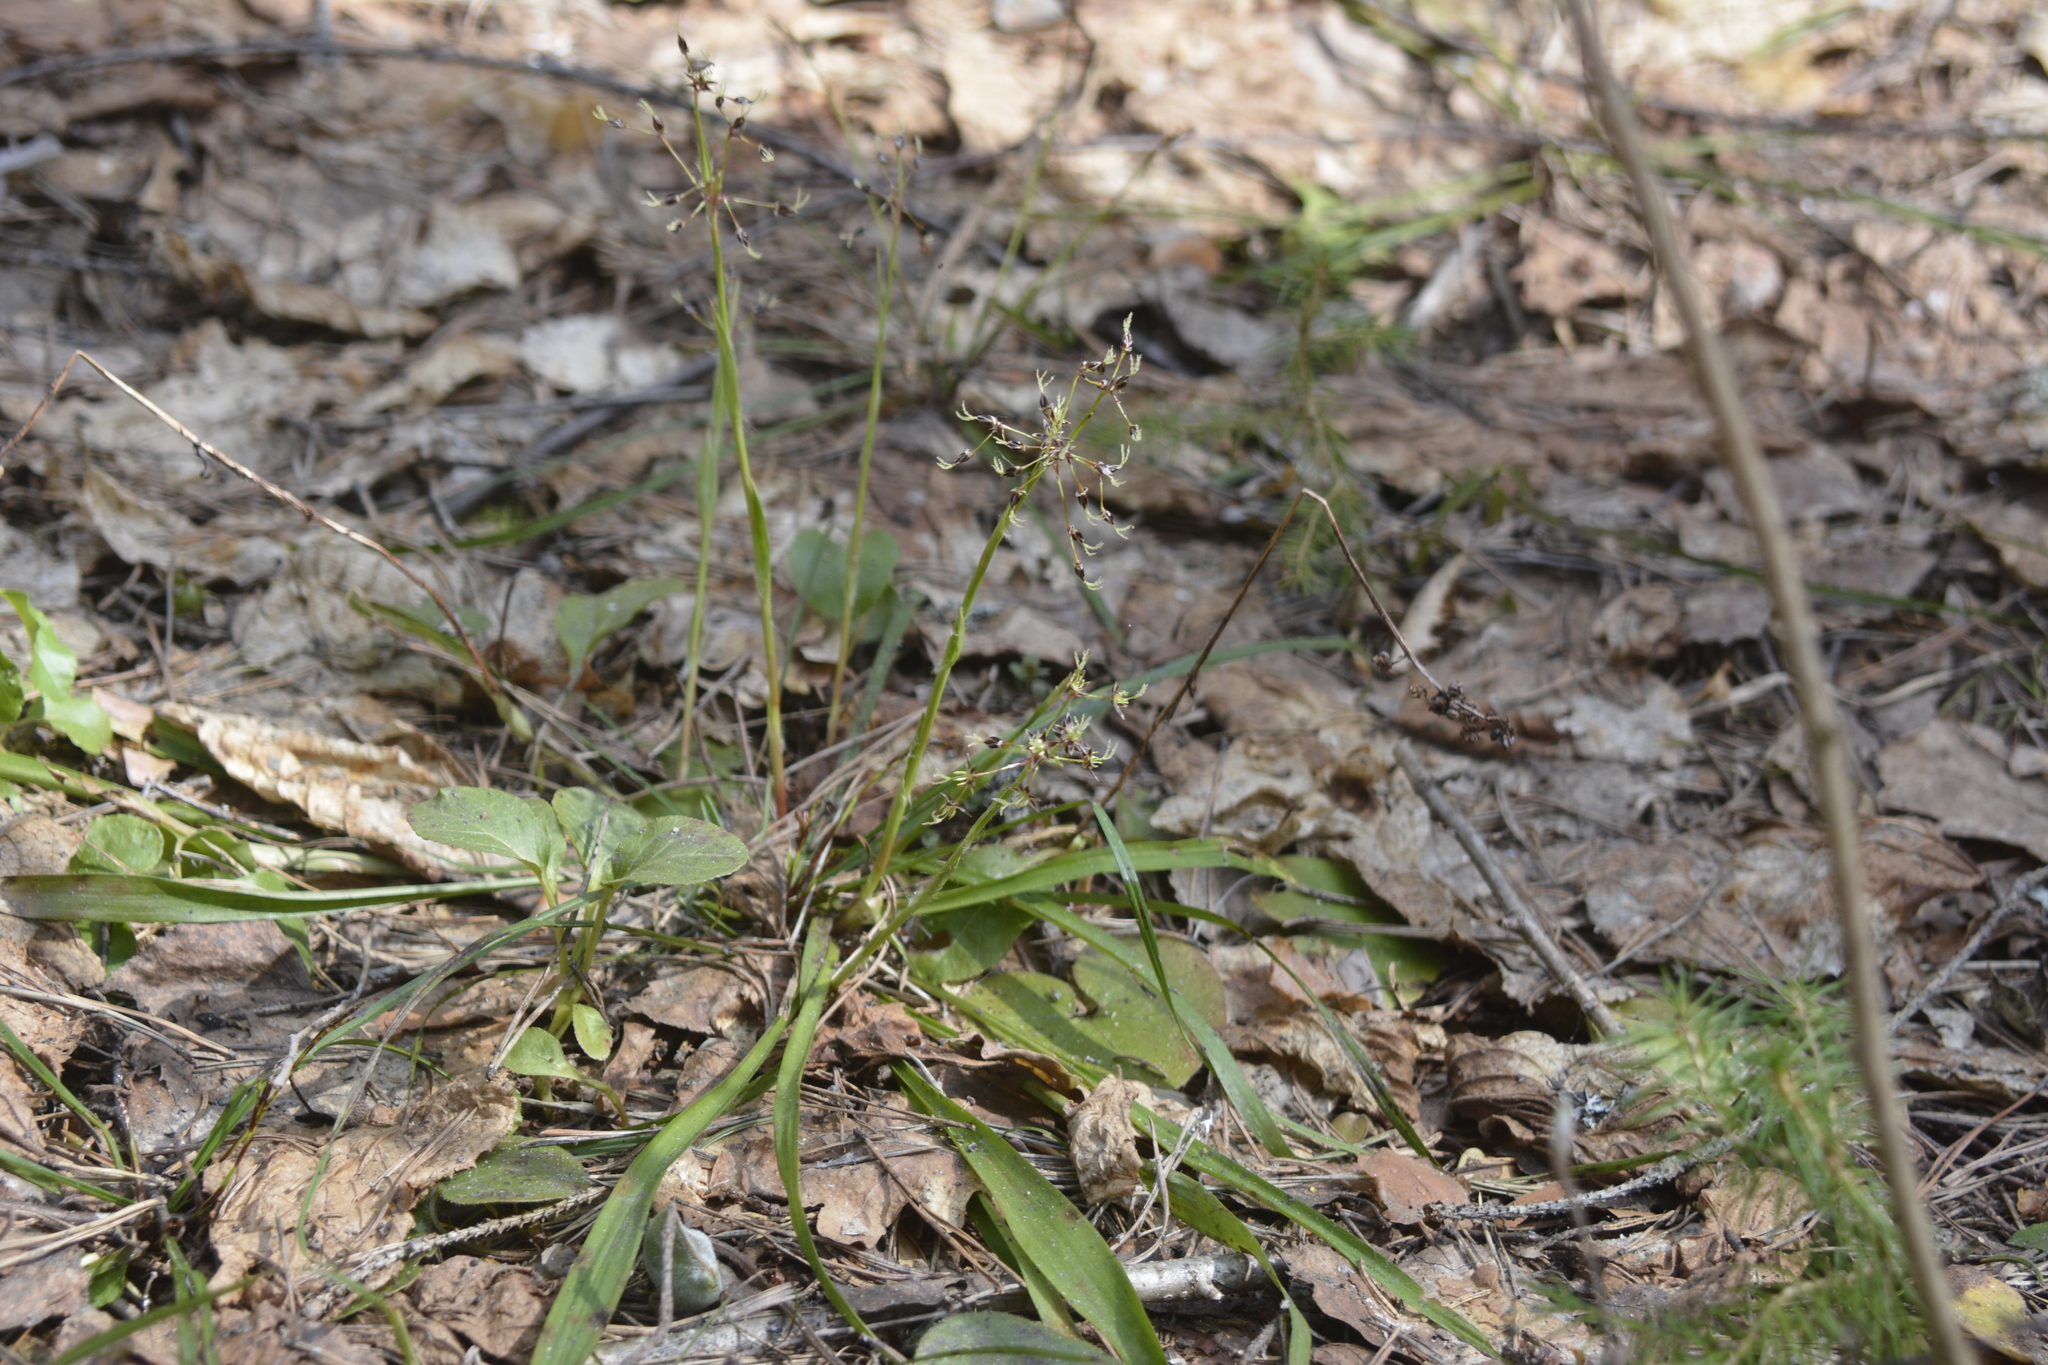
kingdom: Plantae
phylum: Tracheophyta
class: Liliopsida
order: Poales
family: Juncaceae
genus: Luzula
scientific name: Luzula pilosa
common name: Hairy wood-rush
